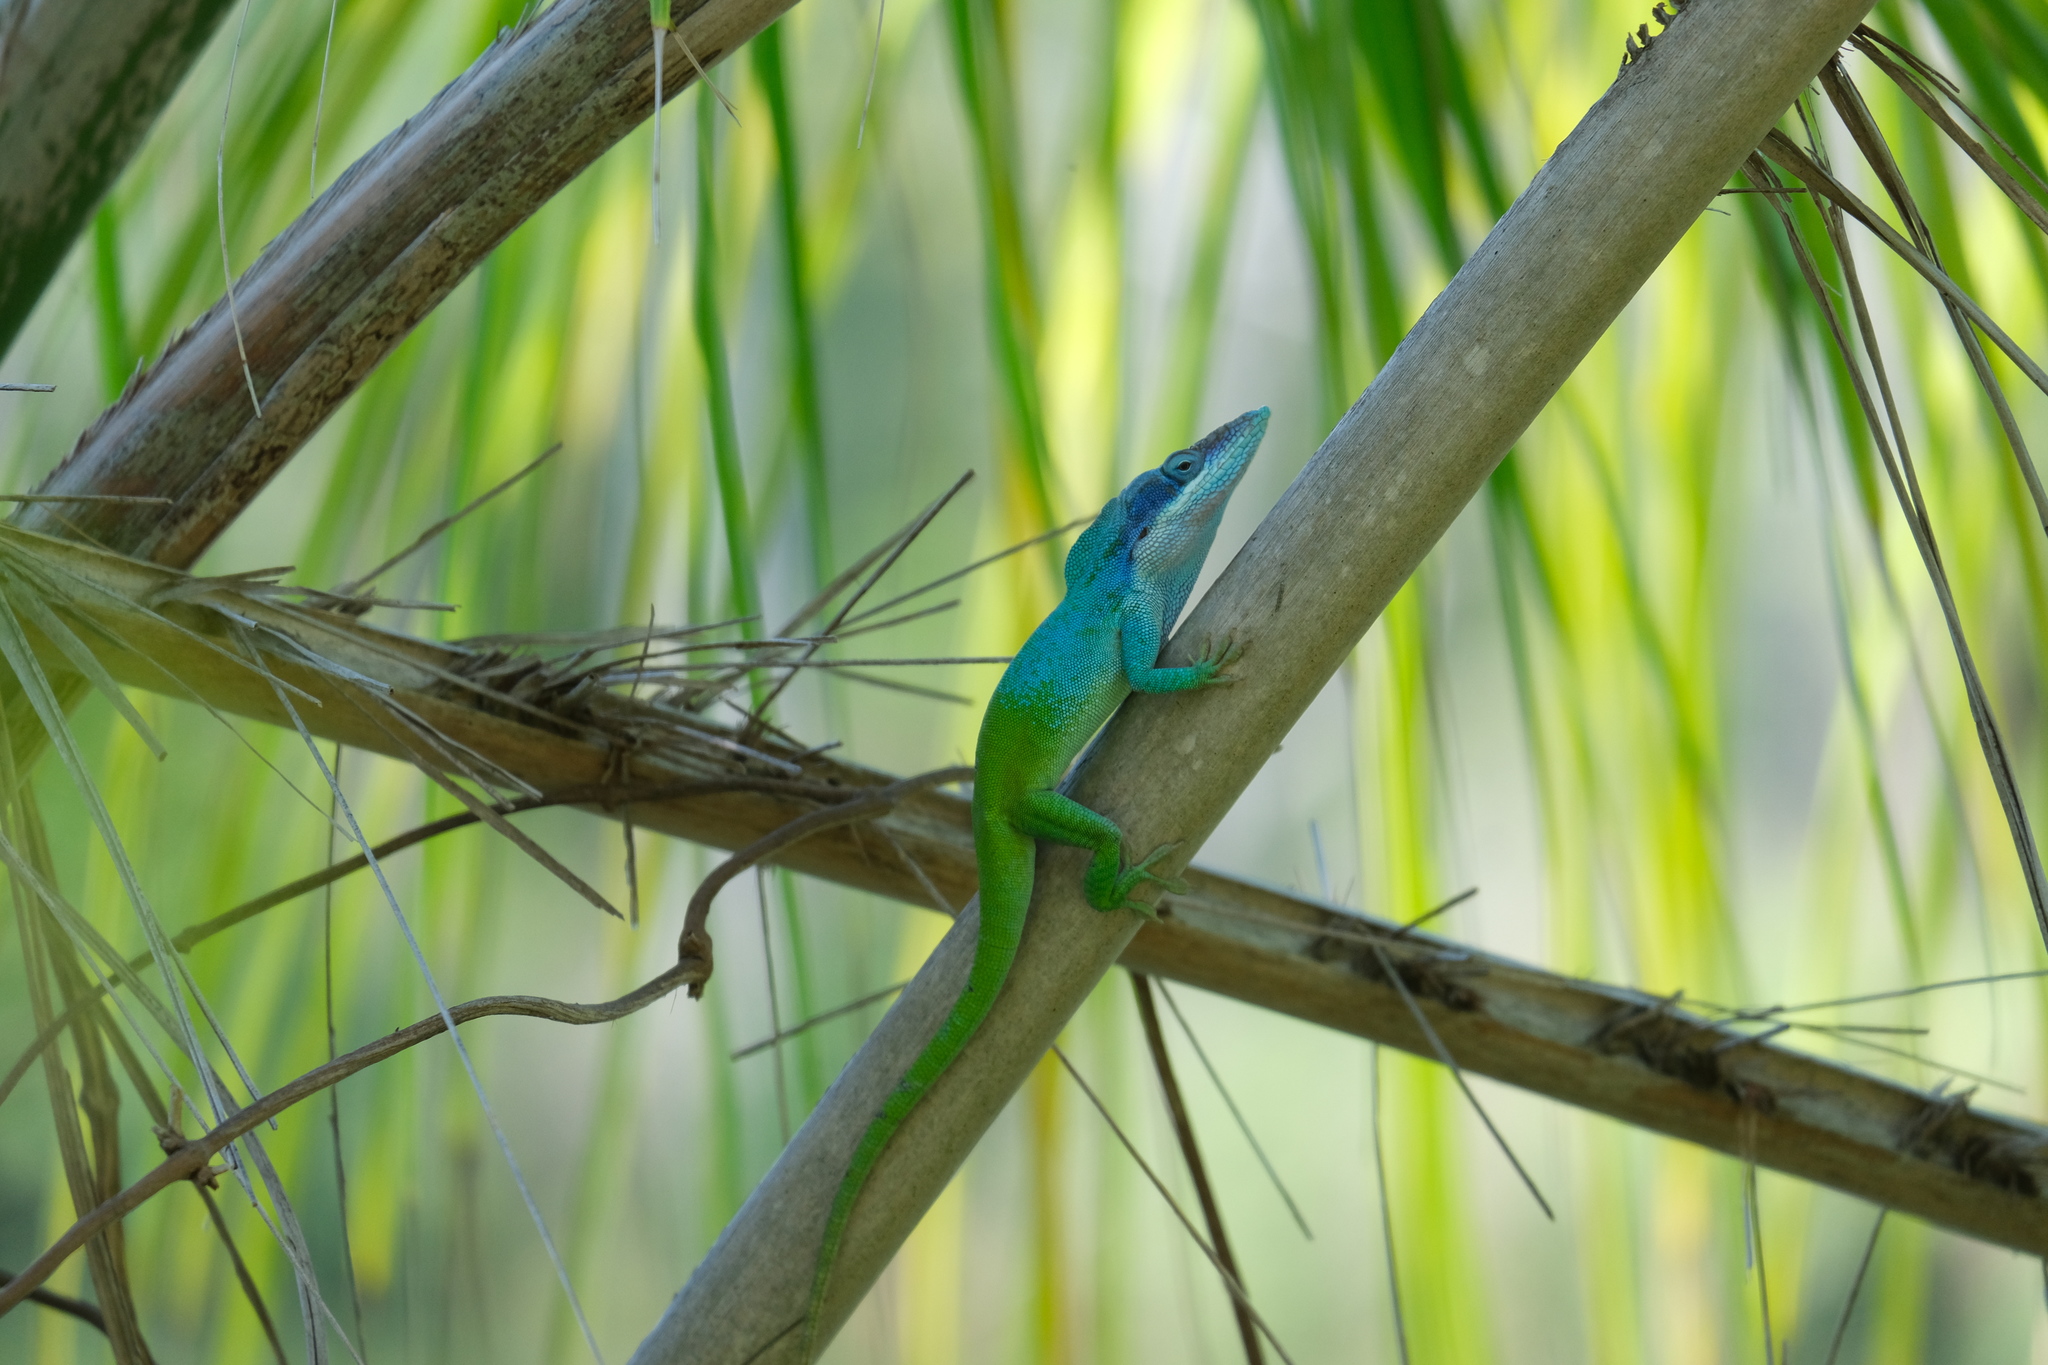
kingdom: Animalia
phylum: Chordata
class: Squamata
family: Dactyloidae
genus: Anolis
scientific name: Anolis allisoni
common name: Allison's anole
